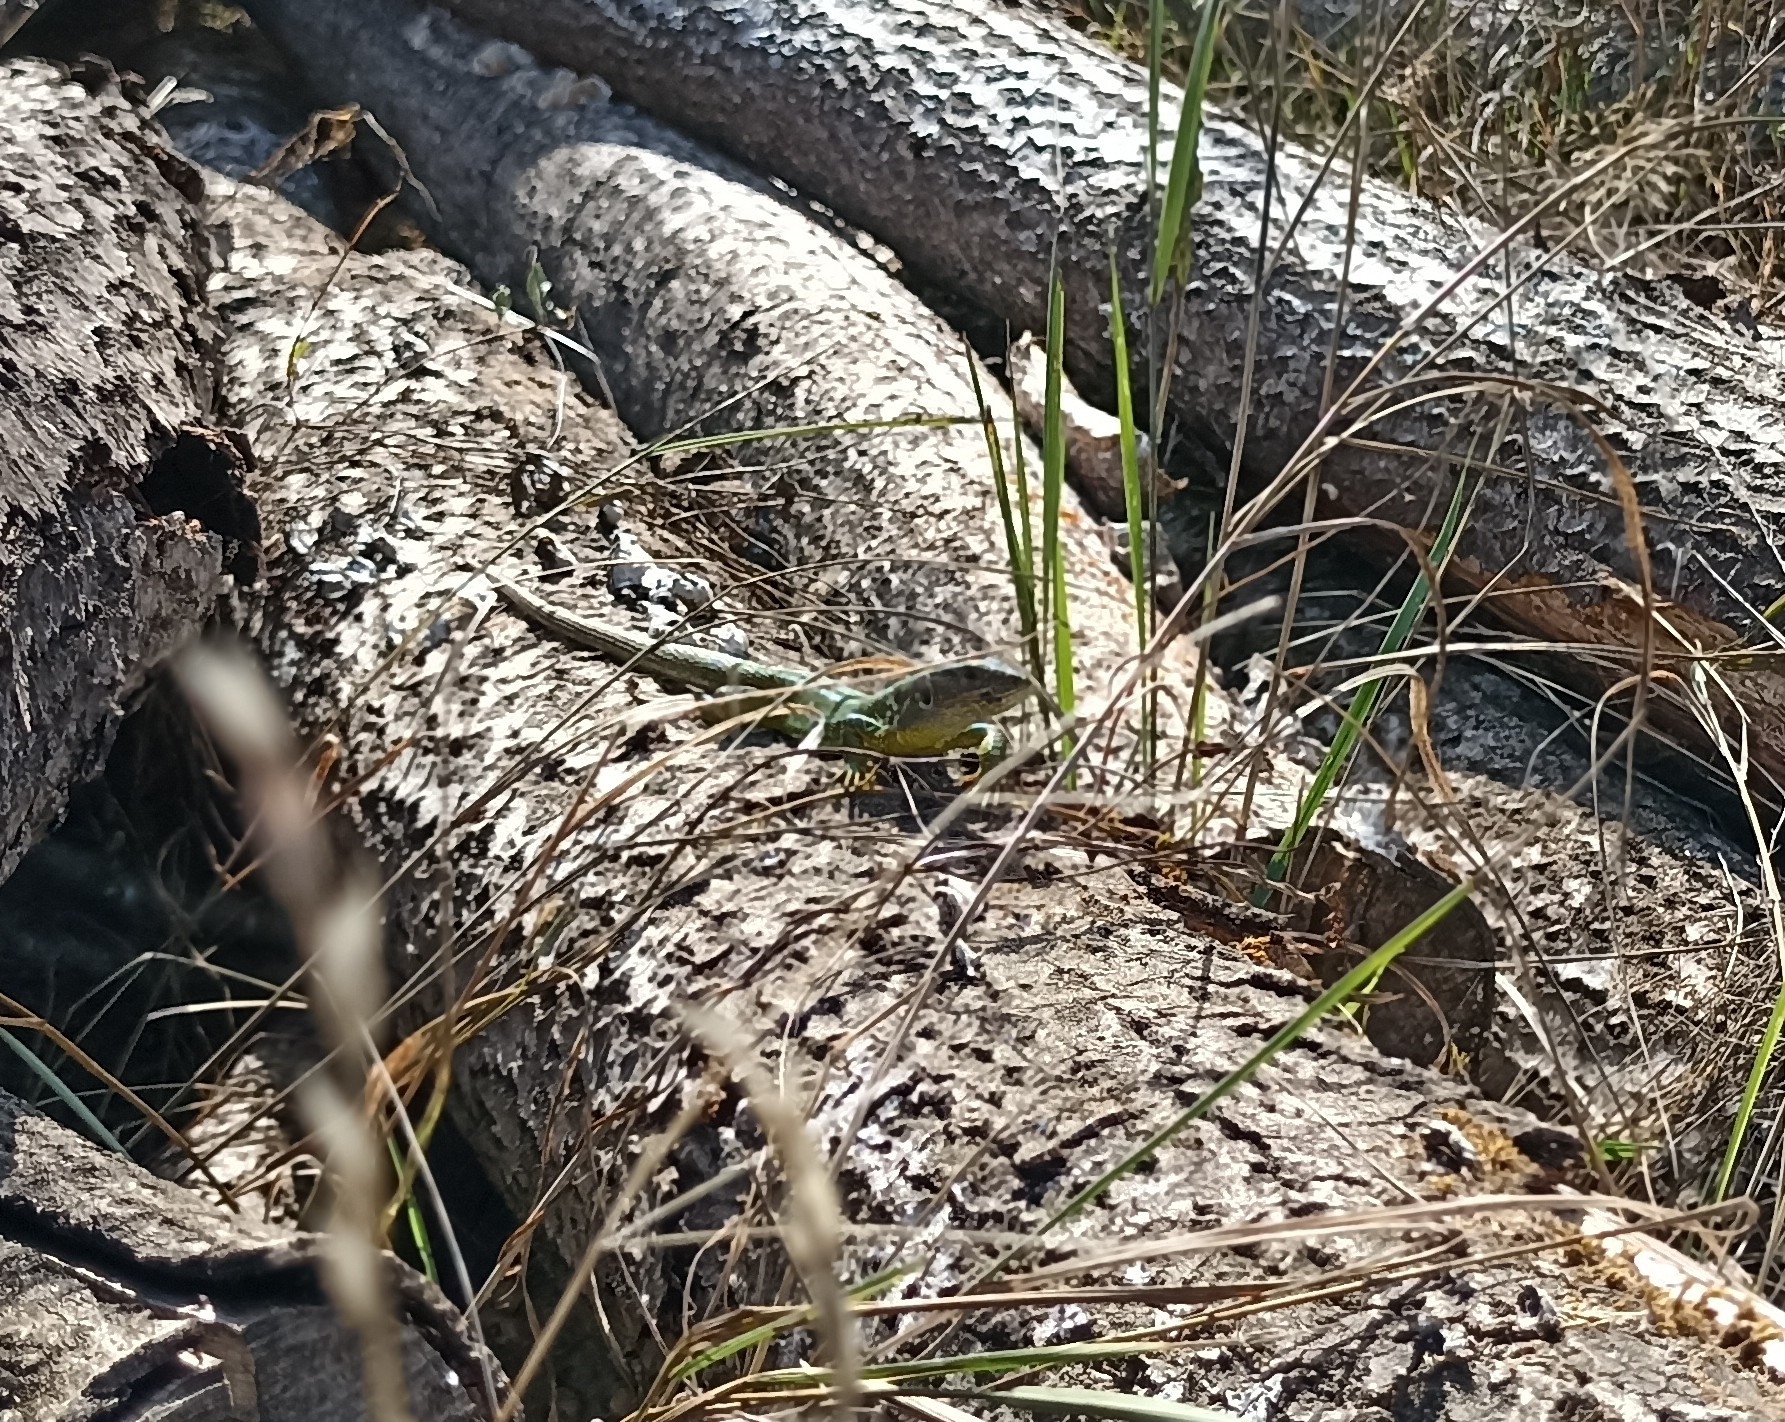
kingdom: Animalia
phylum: Chordata
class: Squamata
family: Lacertidae
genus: Lacerta
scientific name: Lacerta bilineata
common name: Western green lizard
